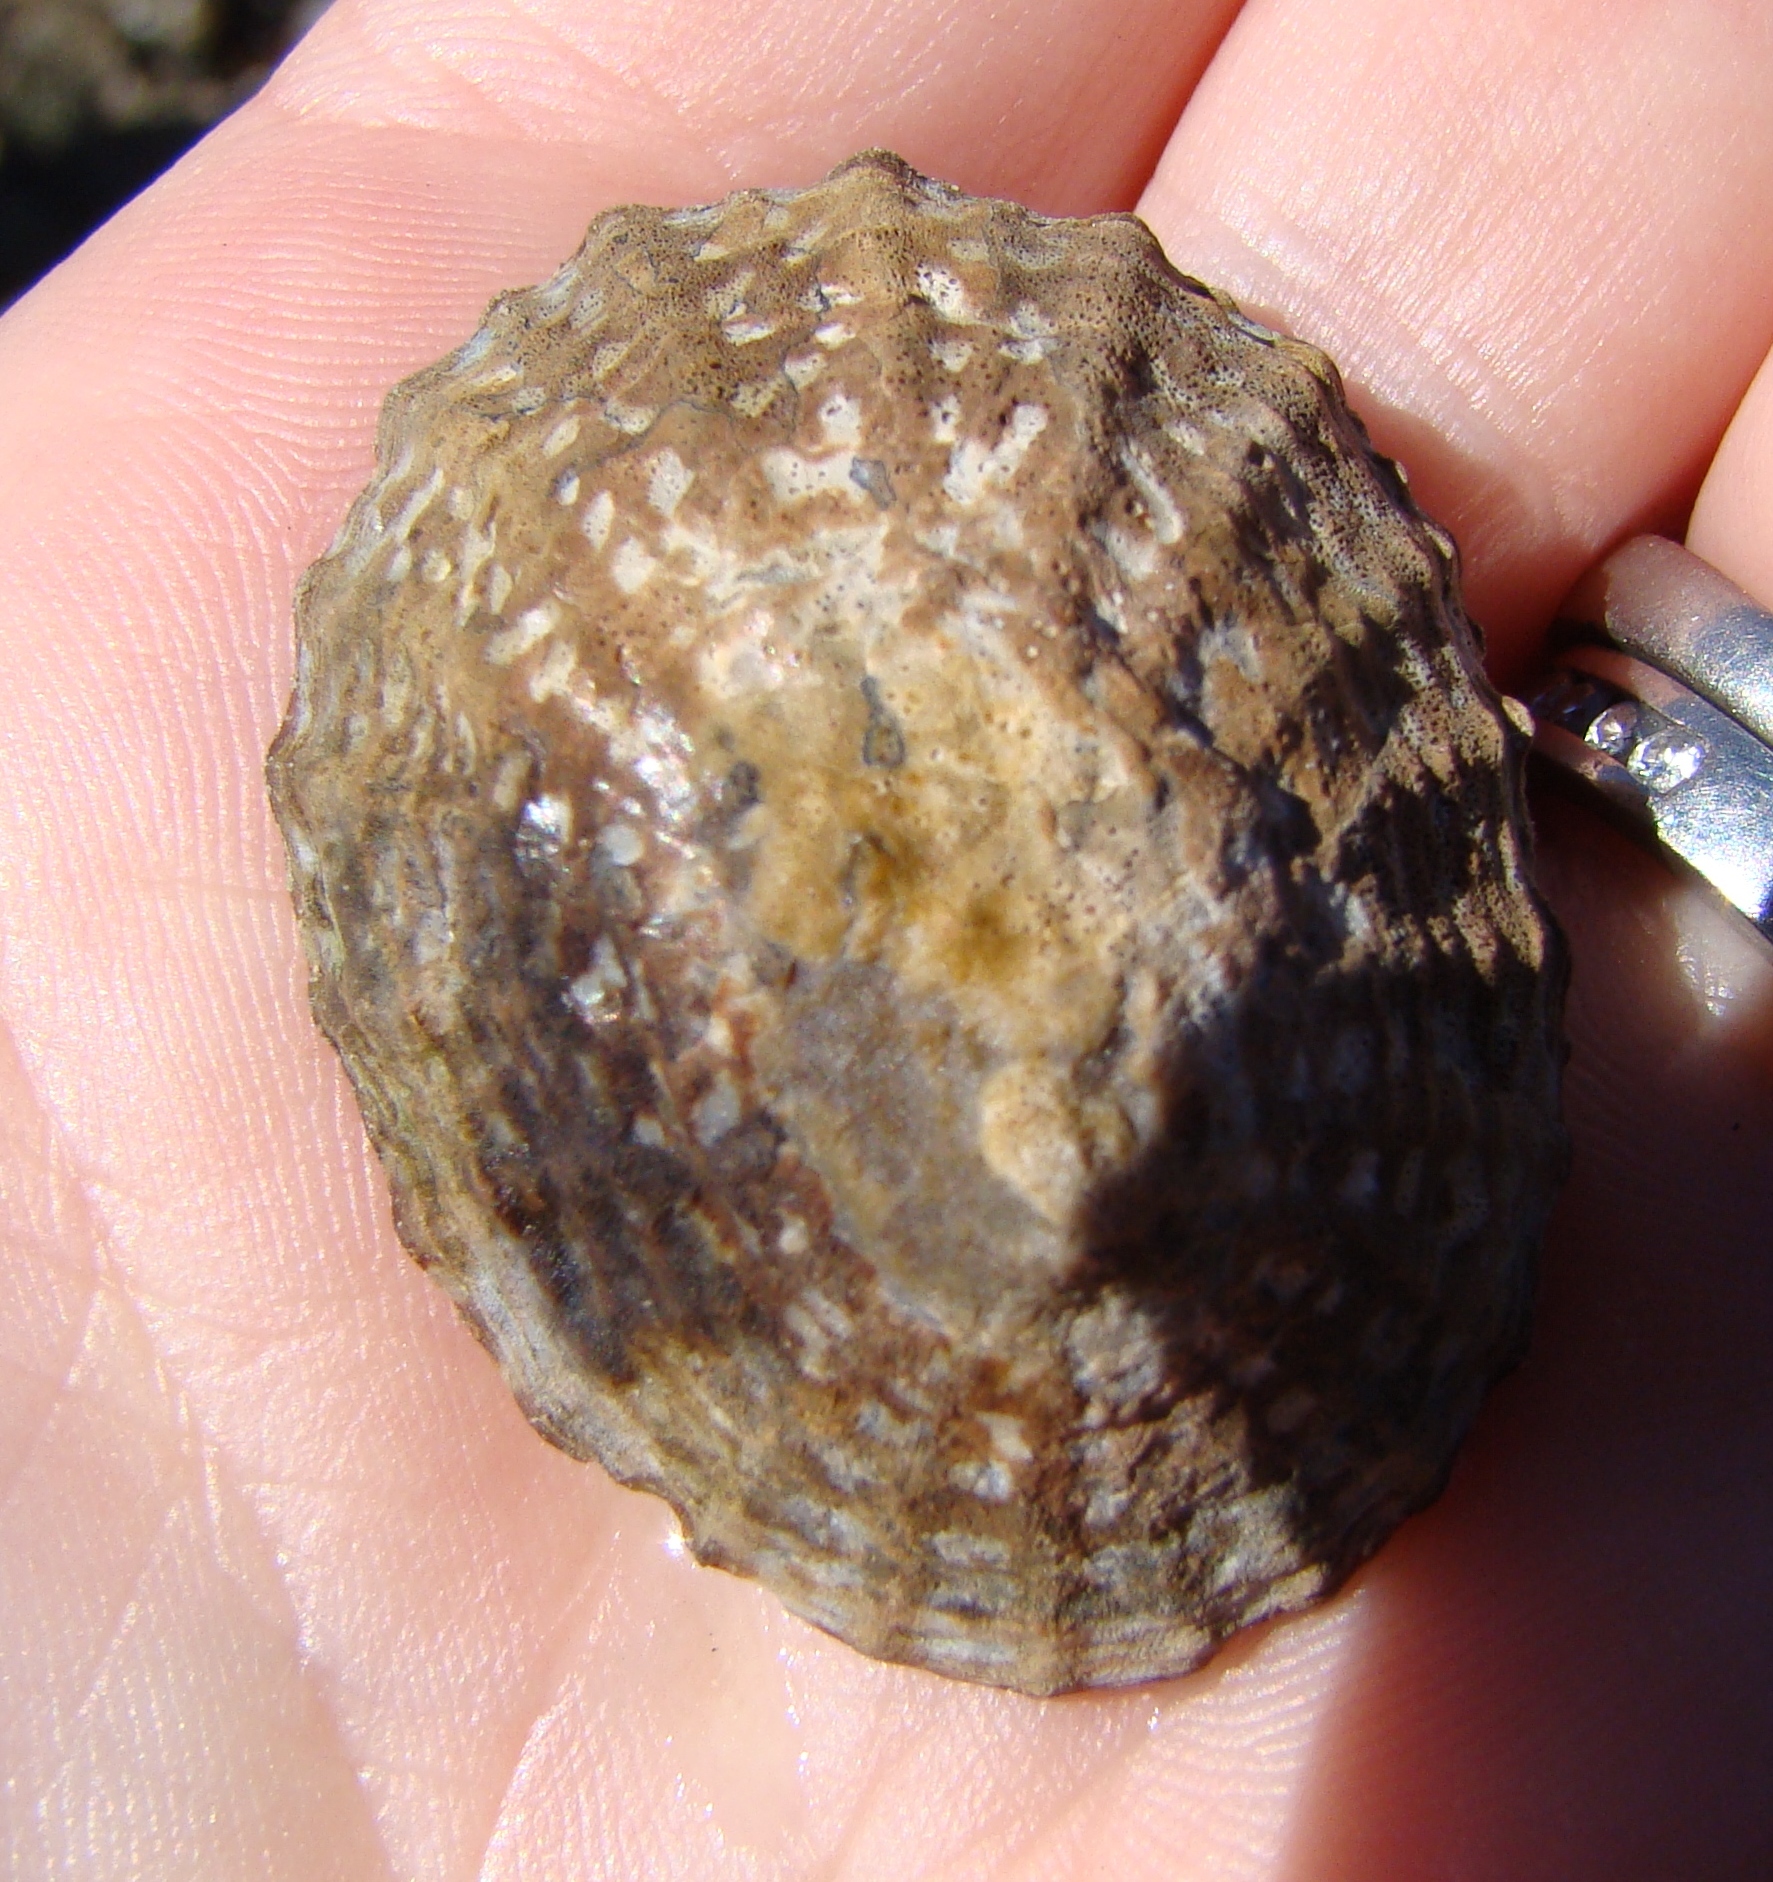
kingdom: Animalia
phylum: Mollusca
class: Gastropoda
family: Nacellidae
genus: Cellana
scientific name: Cellana denticulata
